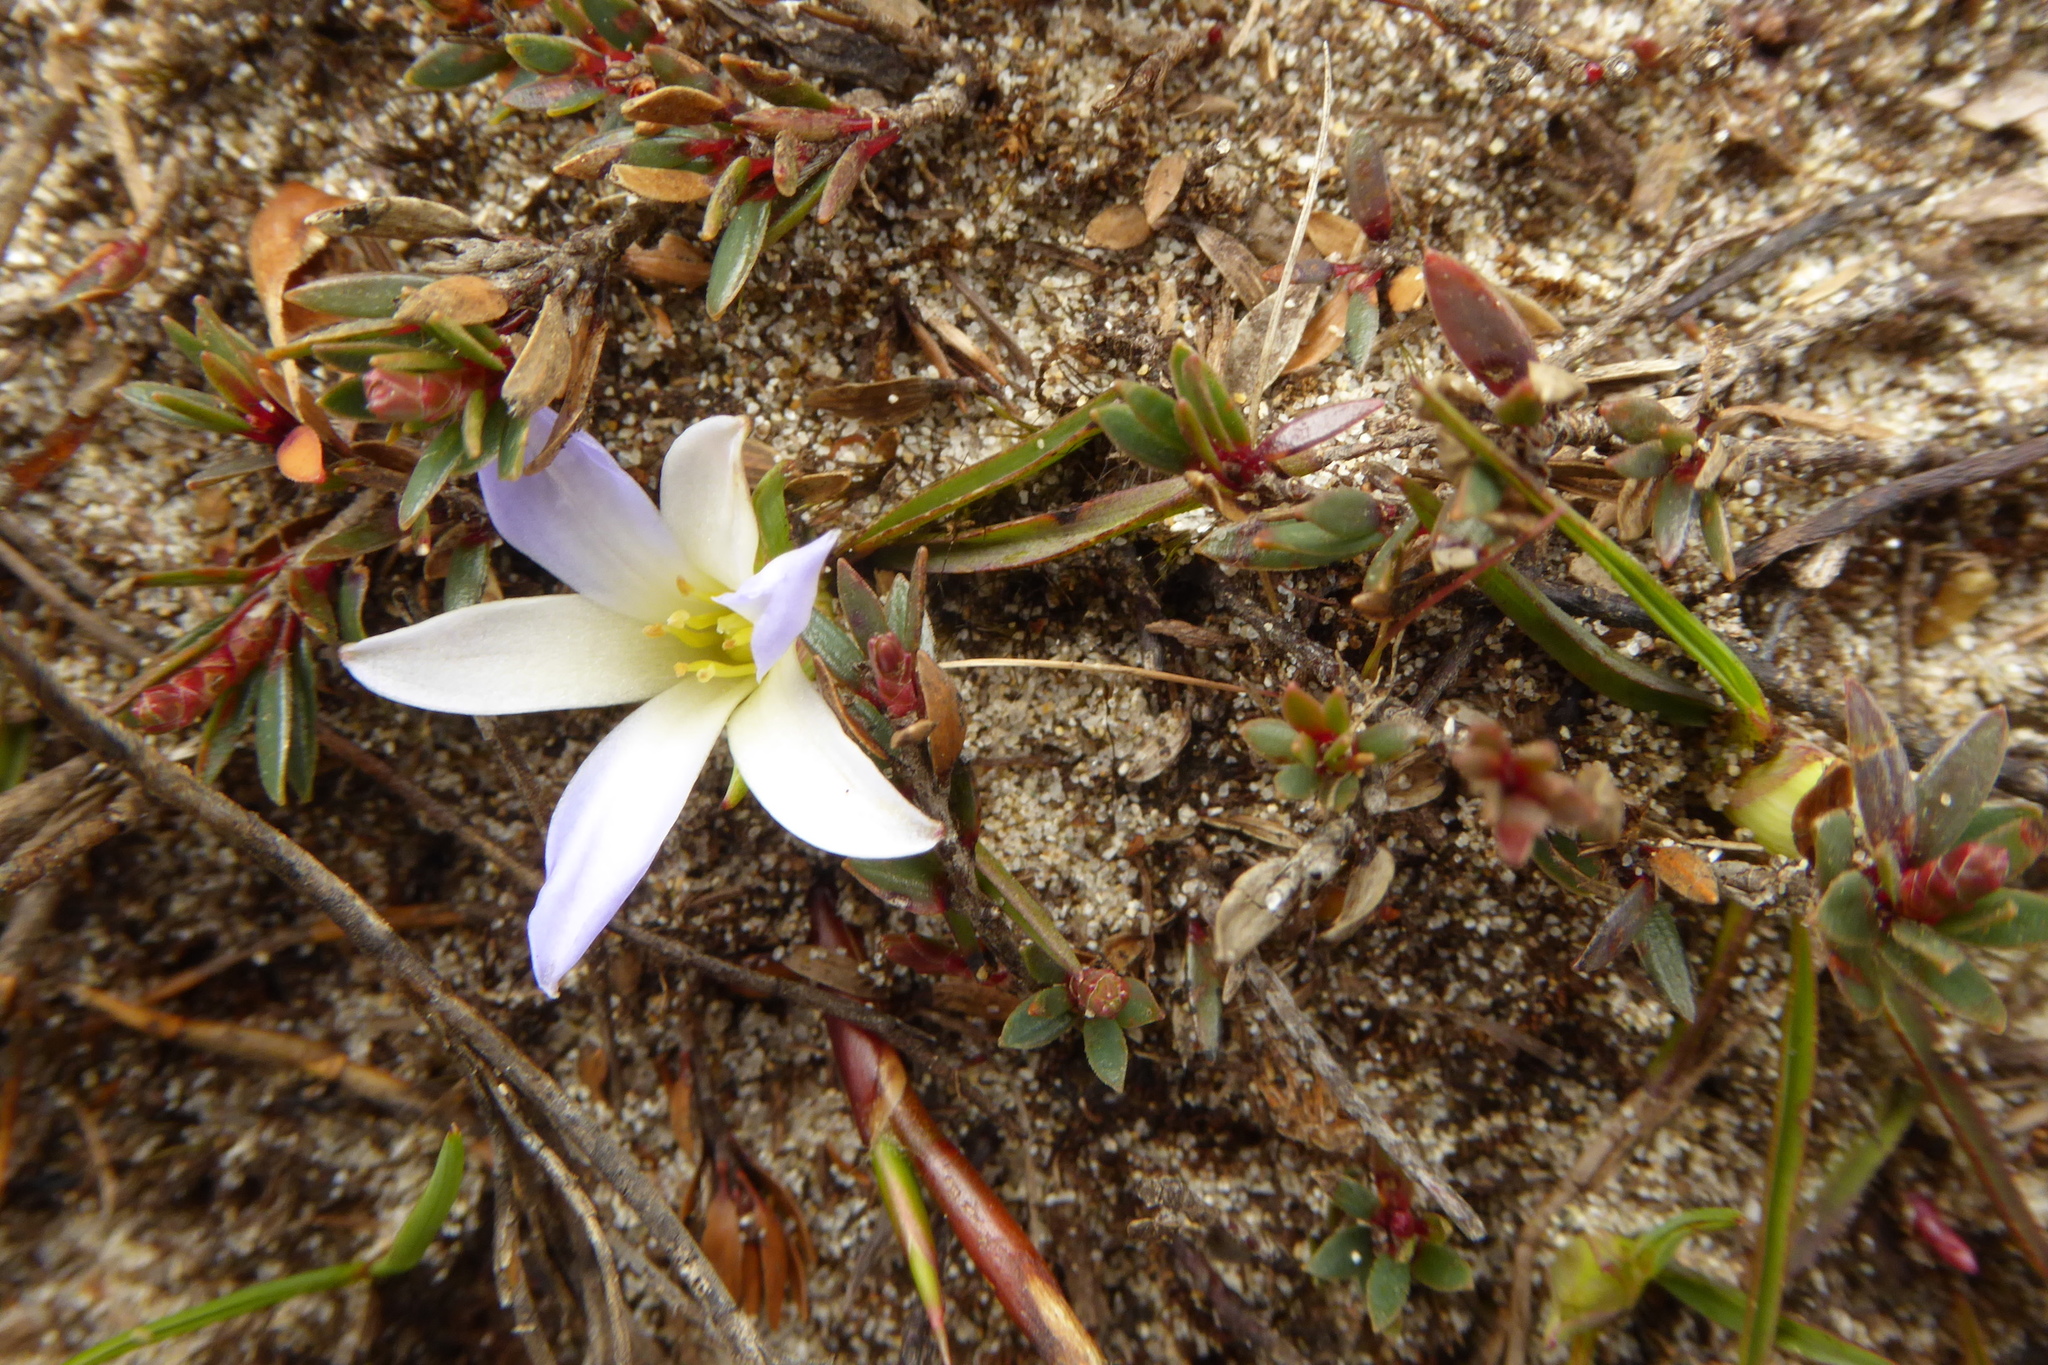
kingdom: Plantae
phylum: Tracheophyta
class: Liliopsida
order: Asparagales
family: Asphodelaceae
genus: Herpolirion
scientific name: Herpolirion novae-zelandiae
